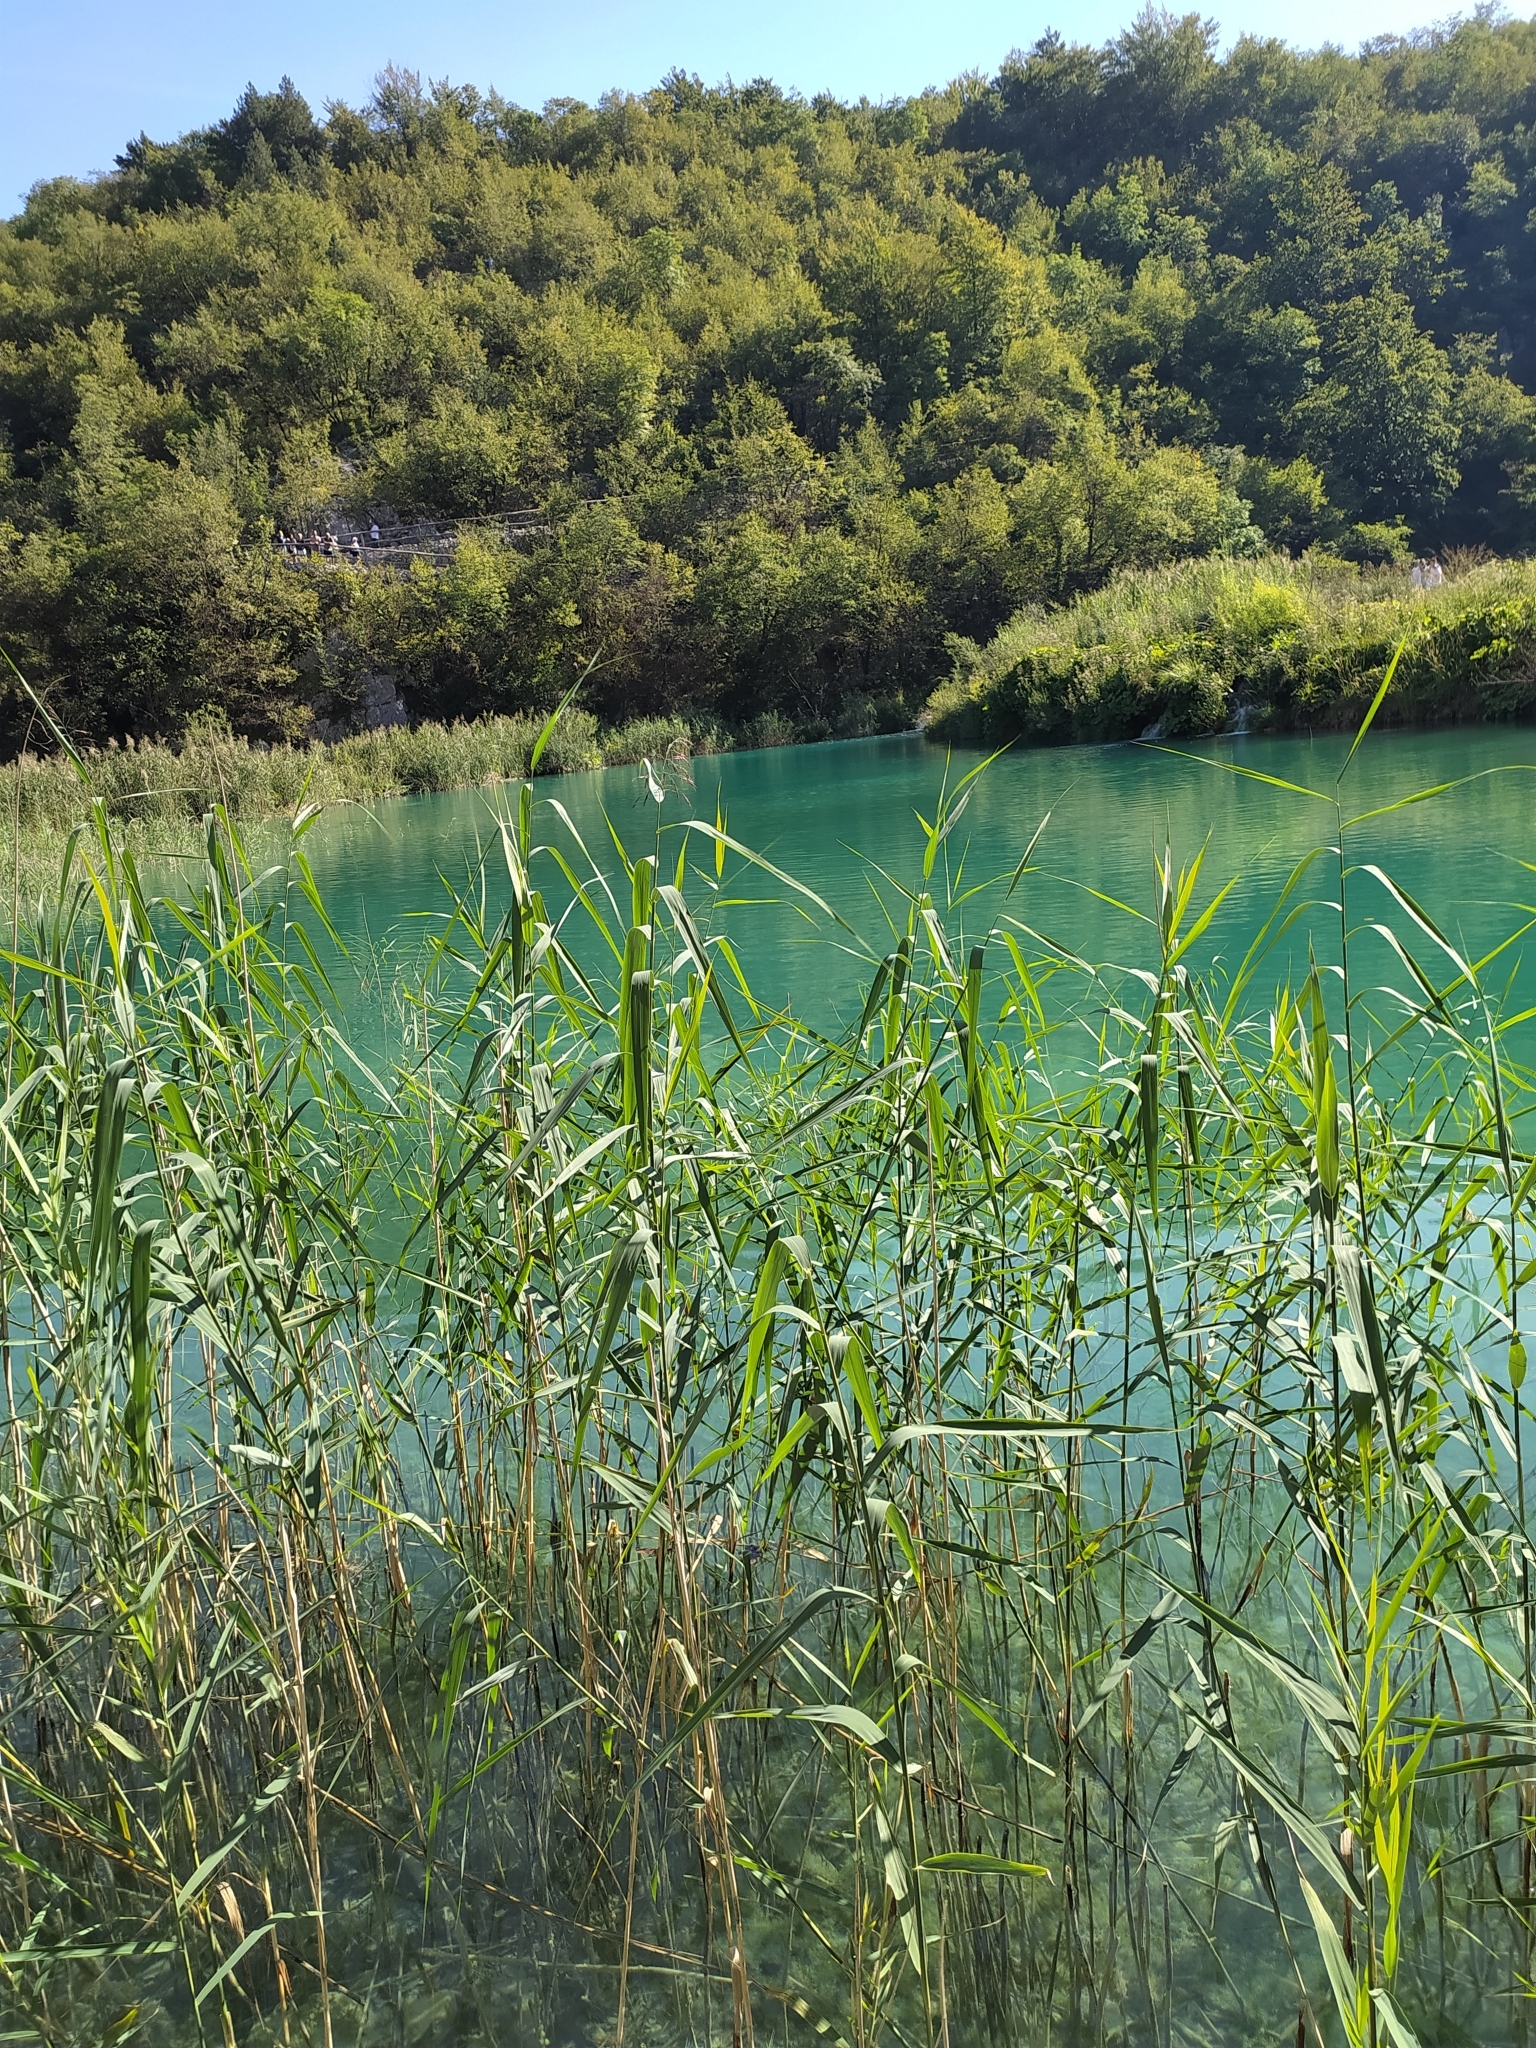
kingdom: Plantae
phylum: Tracheophyta
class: Liliopsida
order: Poales
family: Poaceae
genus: Phragmites
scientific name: Phragmites australis
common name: Common reed
